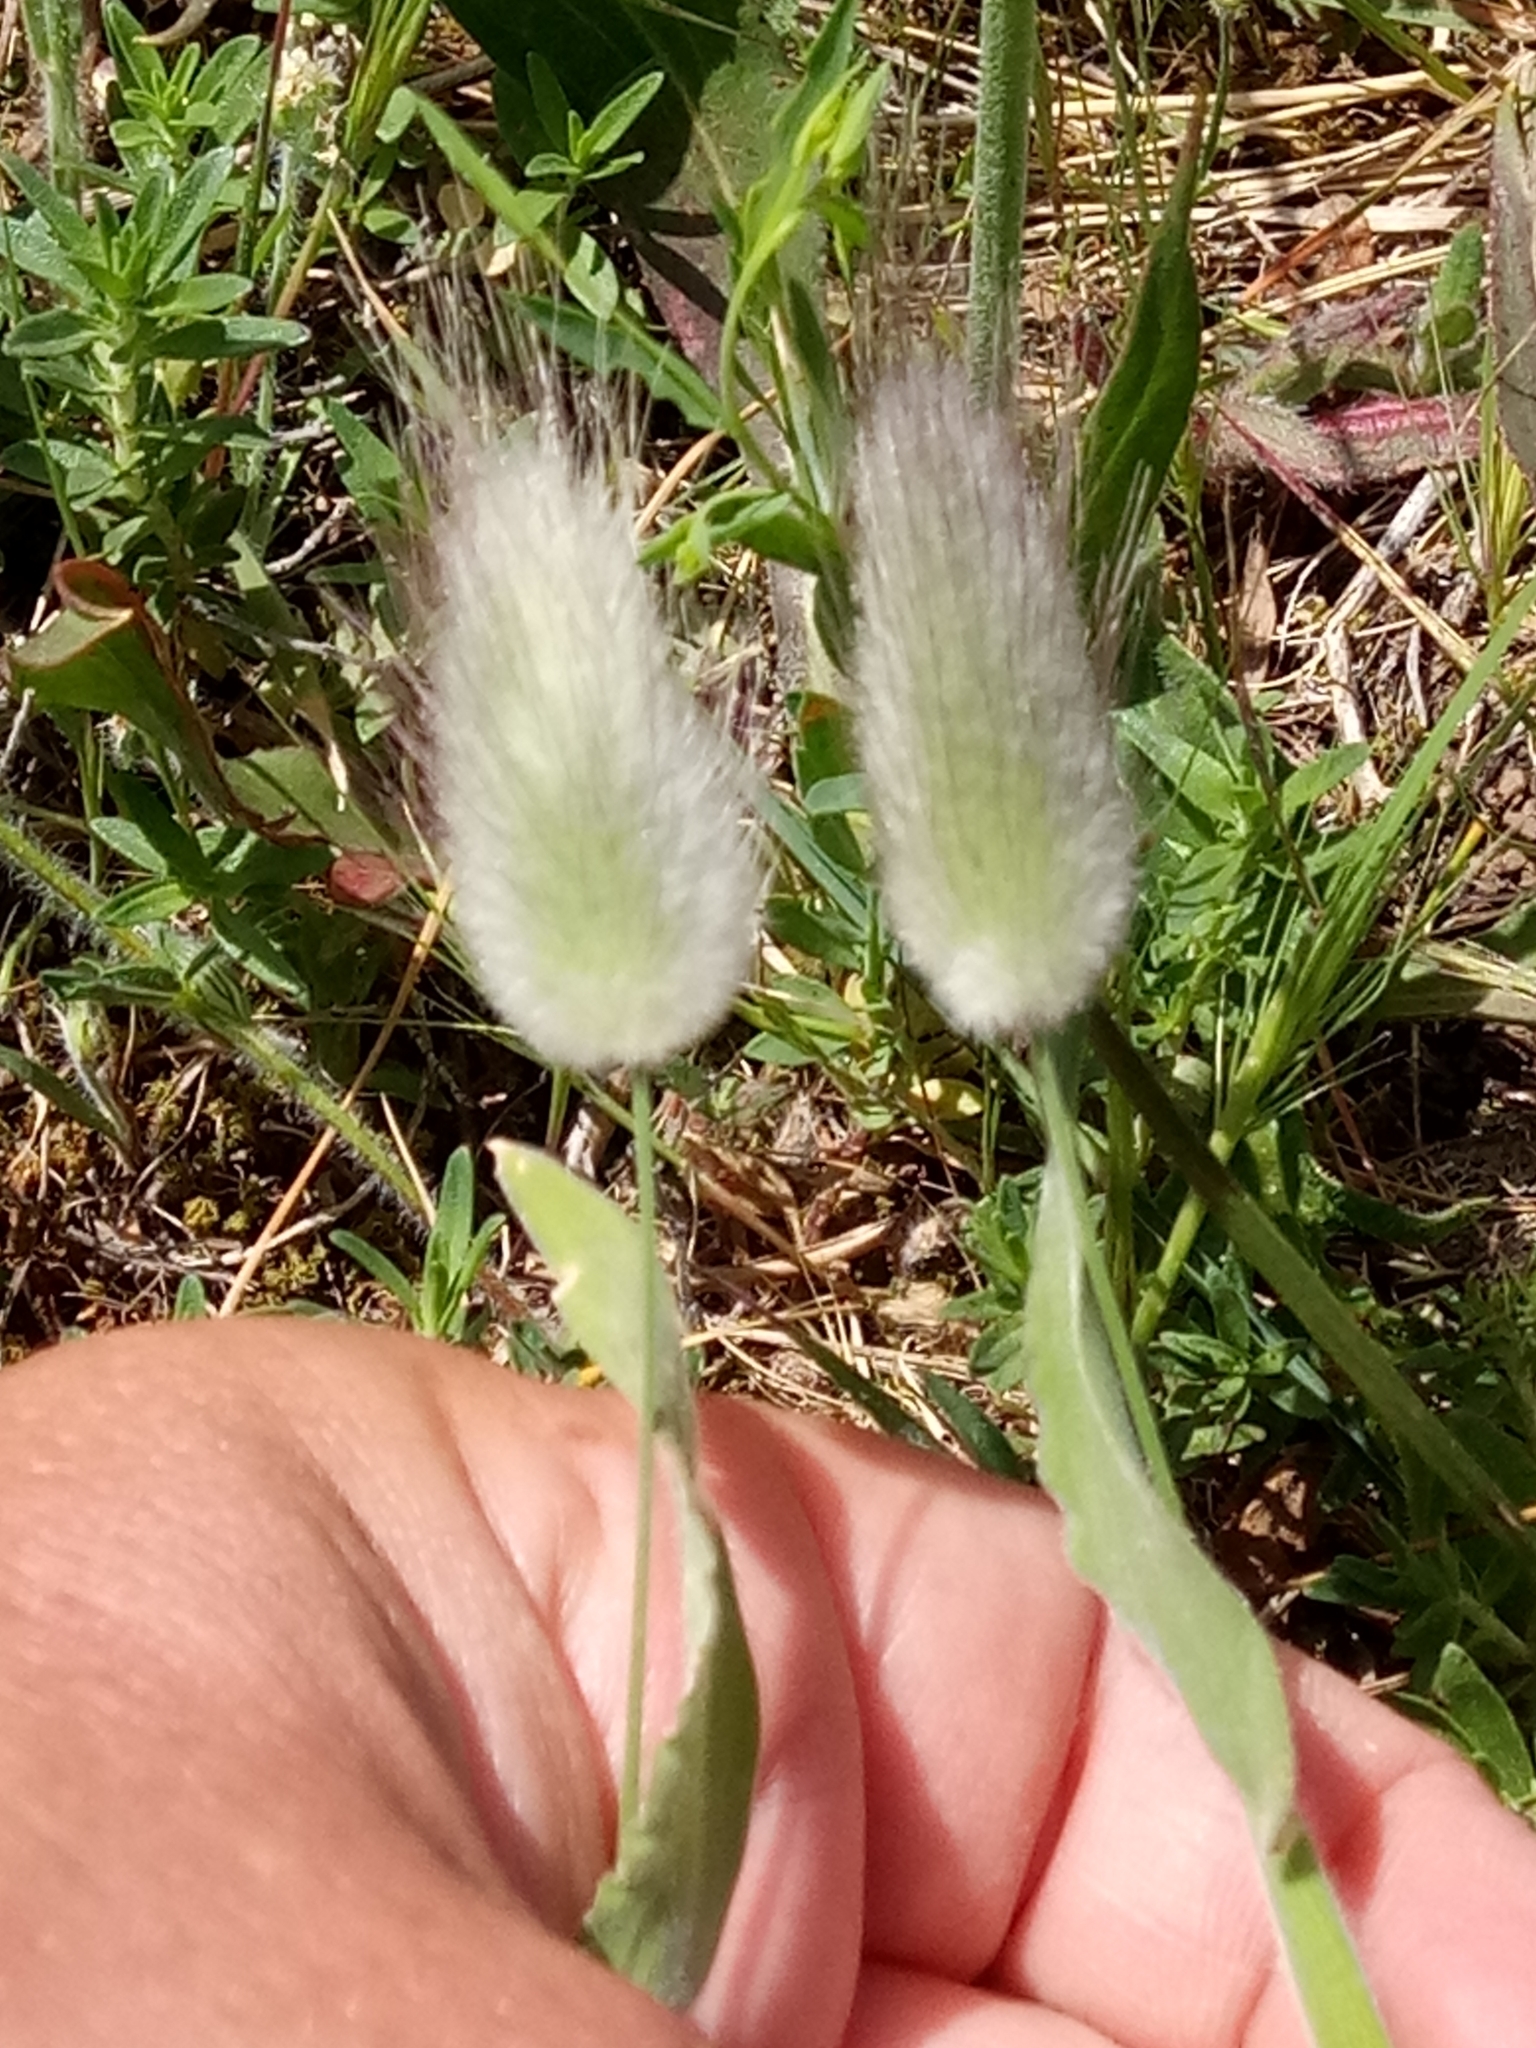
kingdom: Plantae
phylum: Tracheophyta
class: Liliopsida
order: Poales
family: Poaceae
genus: Lagurus
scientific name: Lagurus ovatus
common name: Hare's-tail
